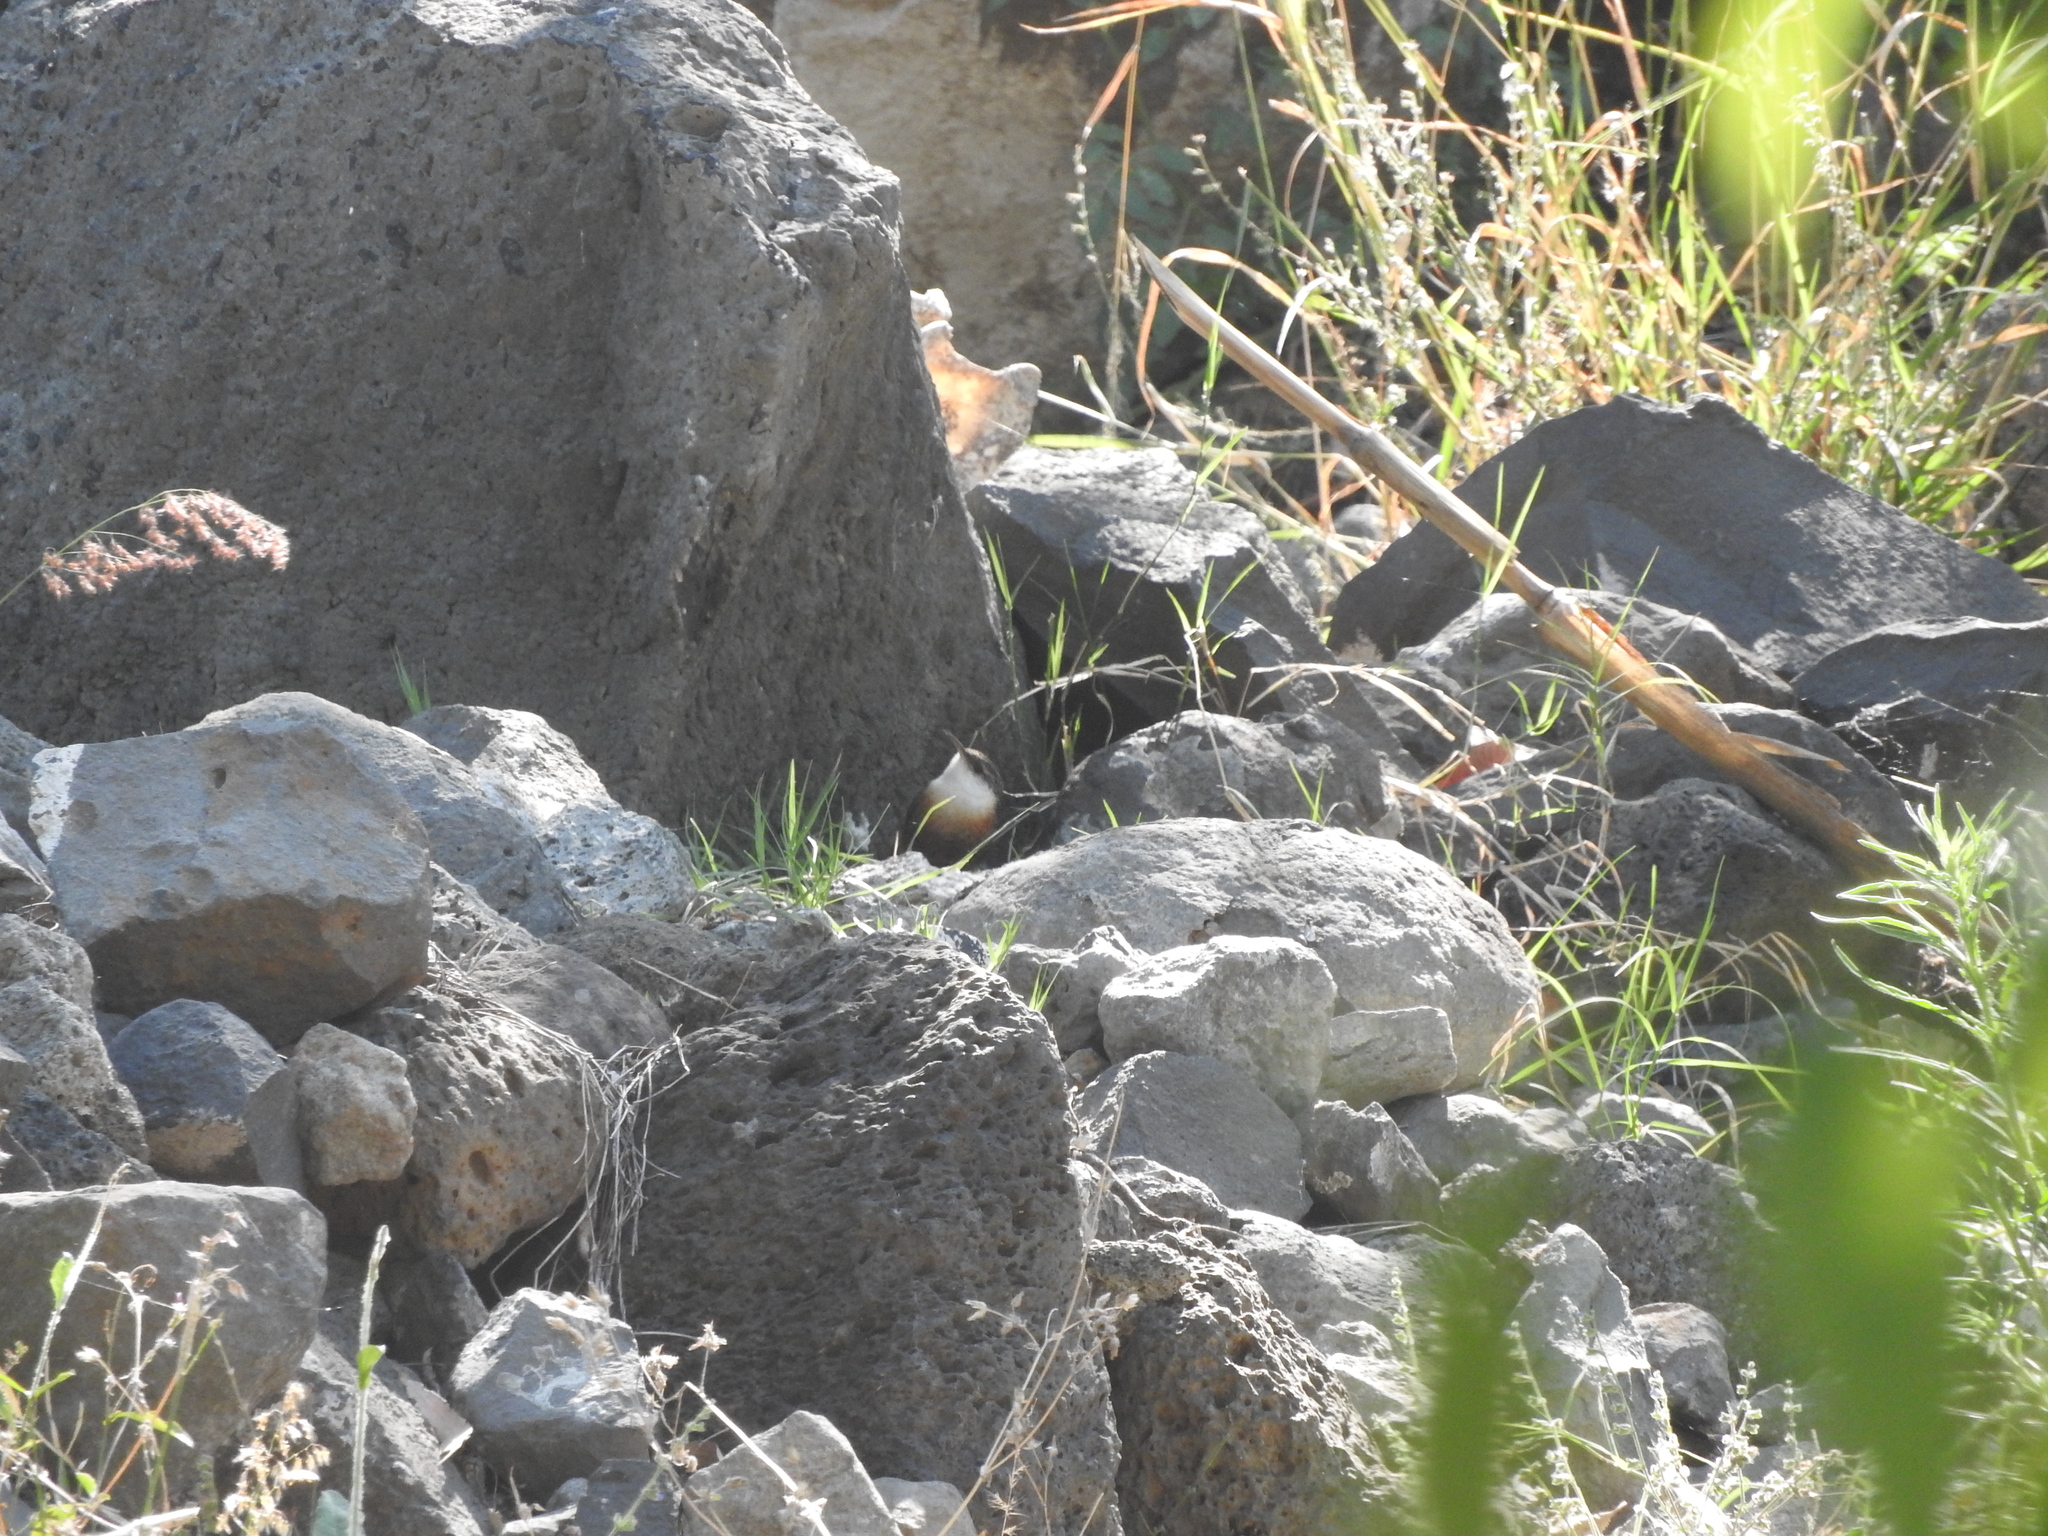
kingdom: Animalia
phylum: Chordata
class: Aves
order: Passeriformes
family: Troglodytidae
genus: Catherpes
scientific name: Catherpes mexicanus
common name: Canyon wren
